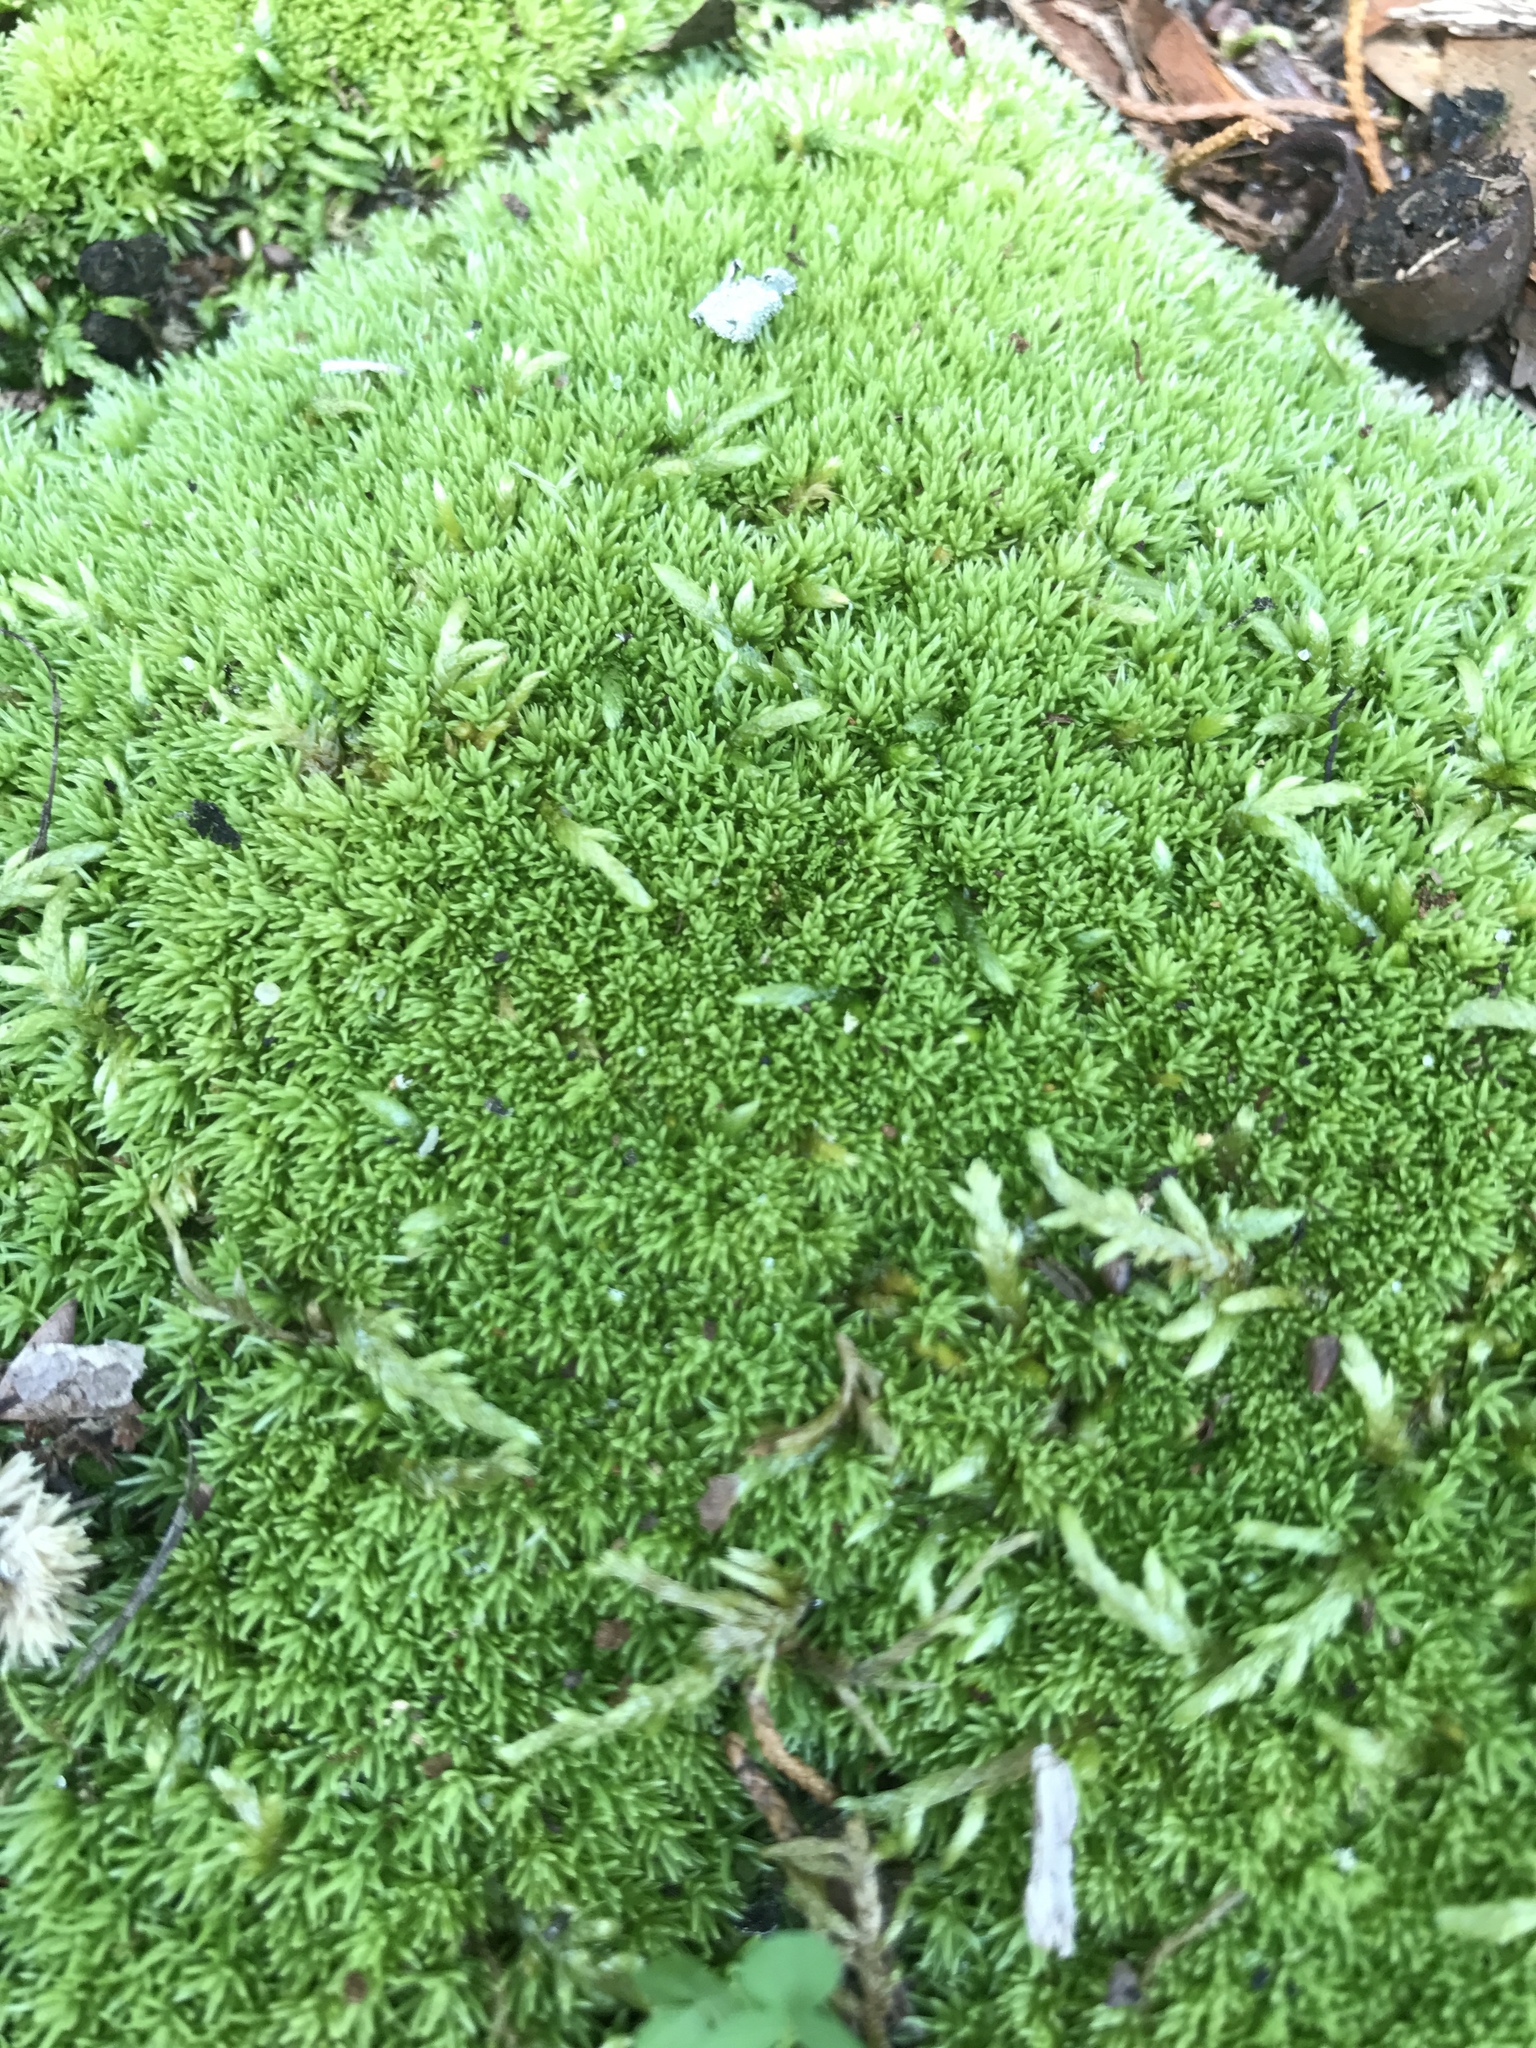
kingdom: Plantae
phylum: Bryophyta
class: Bryopsida
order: Dicranales
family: Leucobryaceae
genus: Leucobryum
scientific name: Leucobryum albidum
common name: White moss
